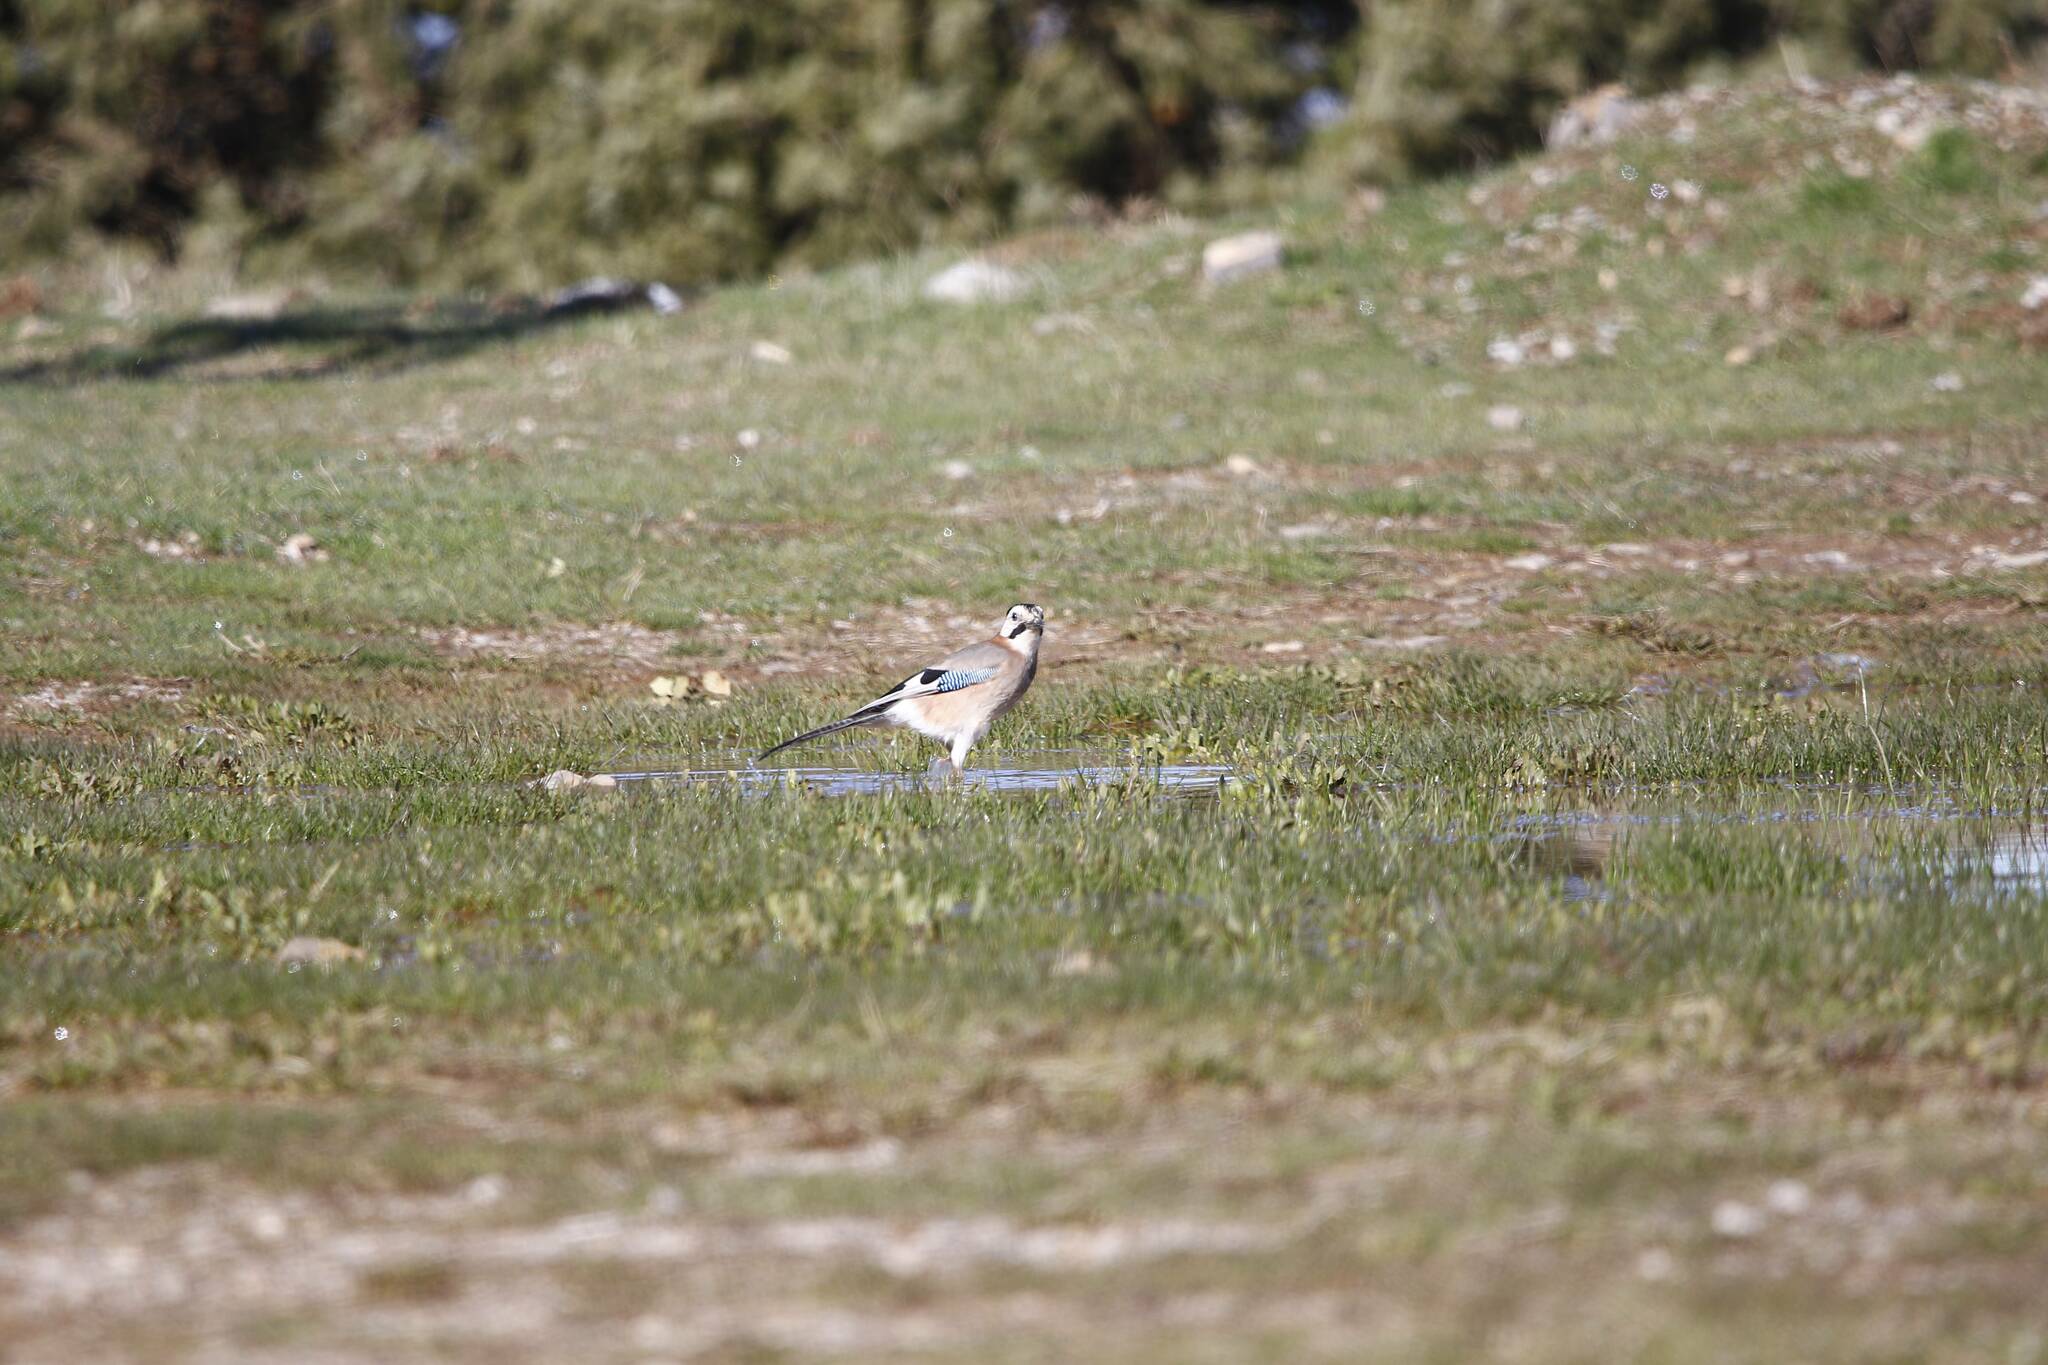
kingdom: Animalia
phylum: Chordata
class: Aves
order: Passeriformes
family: Corvidae
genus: Garrulus
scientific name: Garrulus glandarius
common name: Eurasian jay
